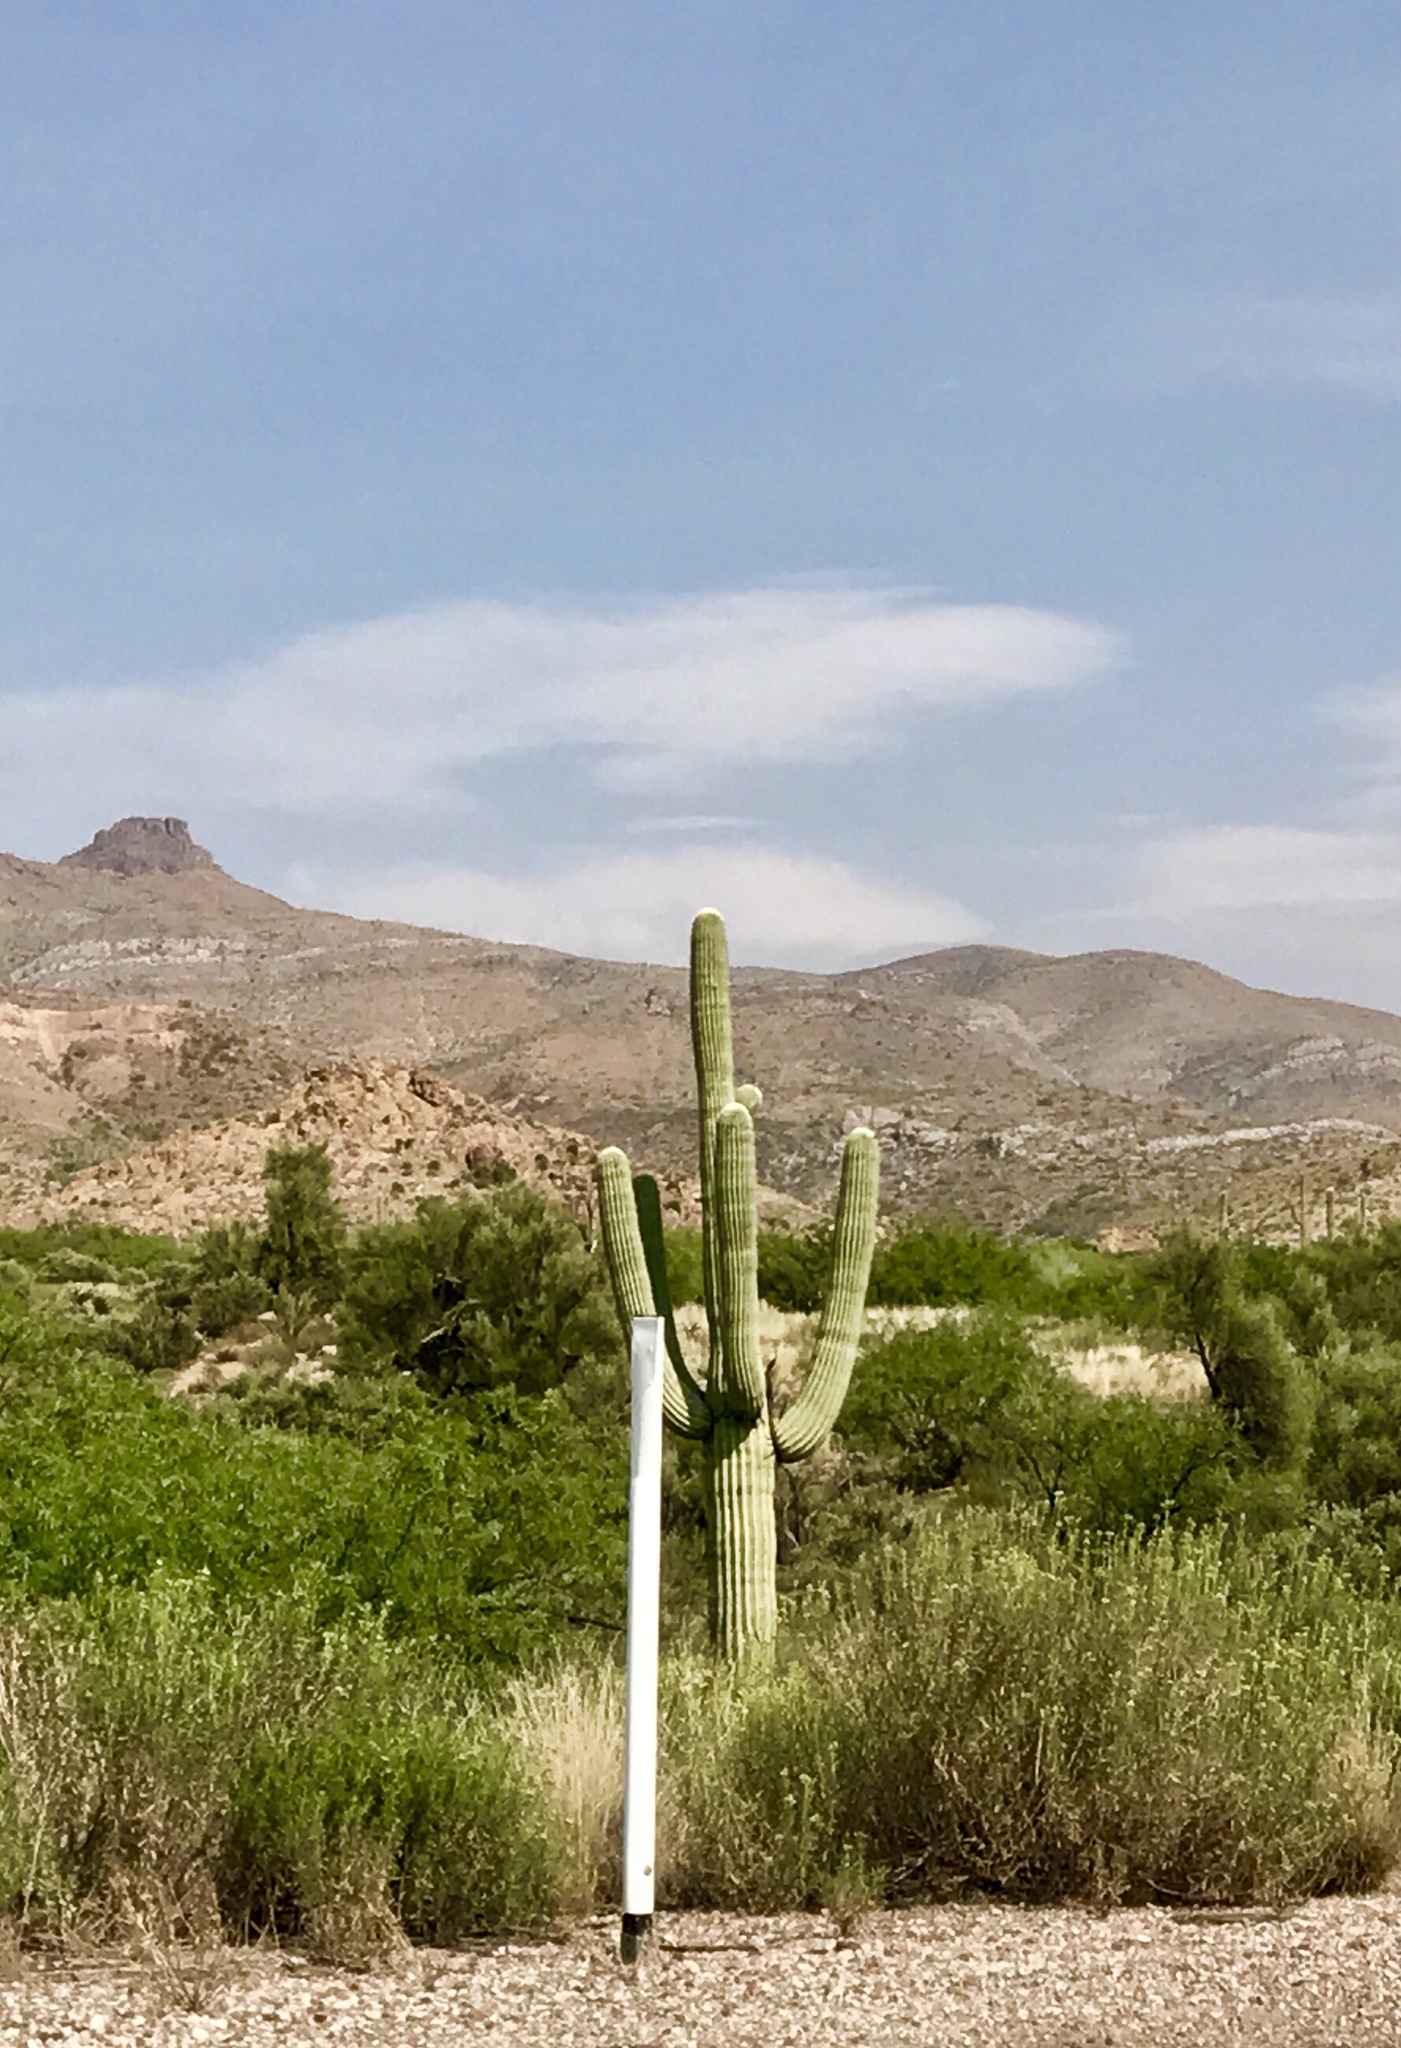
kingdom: Plantae
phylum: Tracheophyta
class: Magnoliopsida
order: Caryophyllales
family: Cactaceae
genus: Carnegiea
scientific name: Carnegiea gigantea
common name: Saguaro
